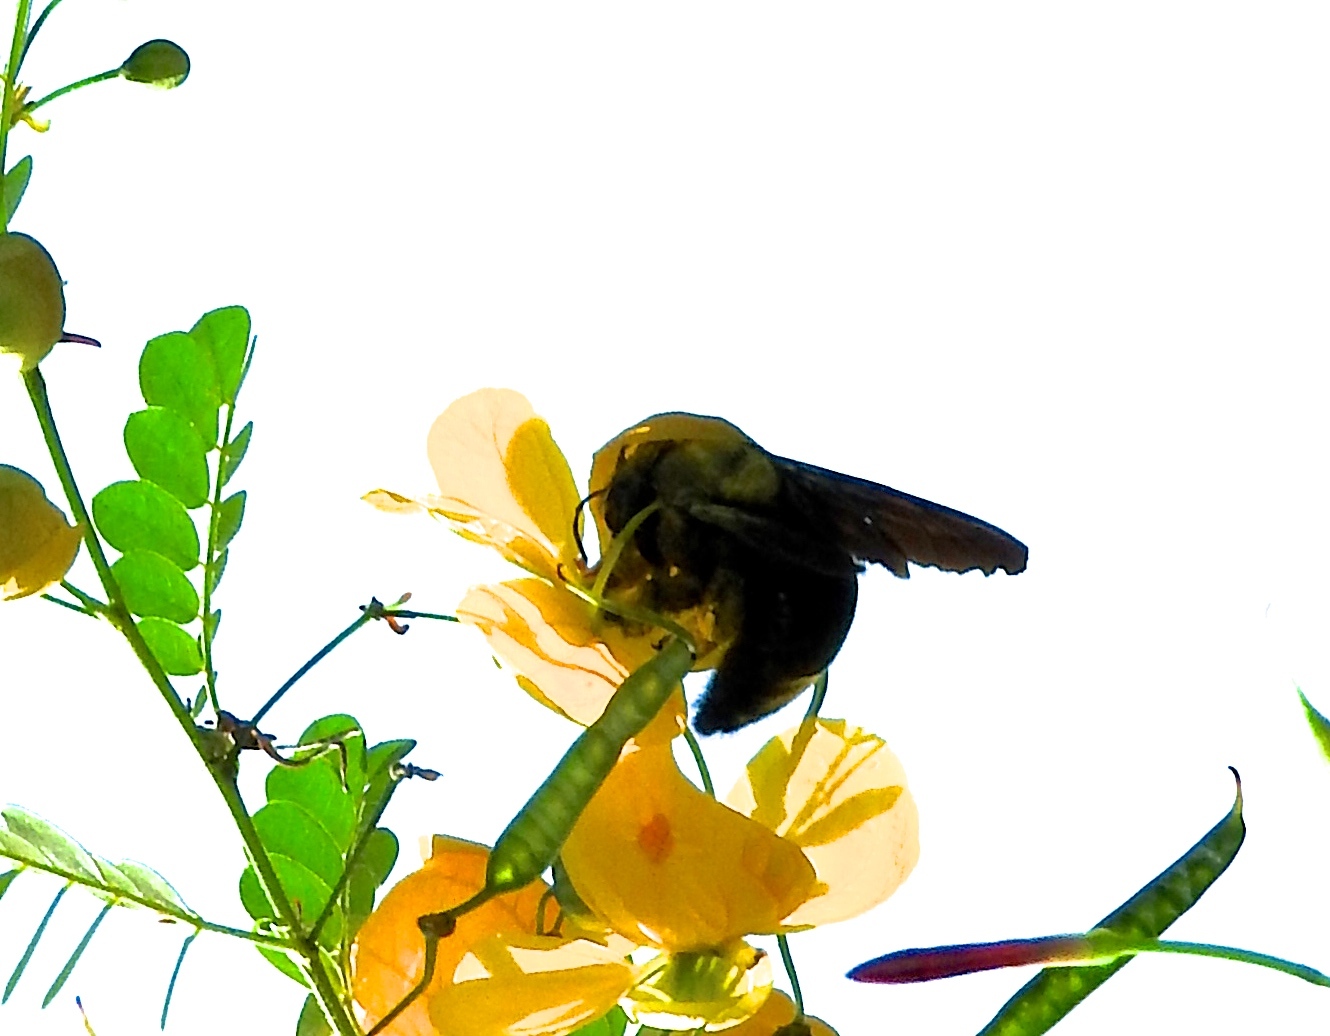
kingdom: Animalia
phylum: Arthropoda
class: Insecta
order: Hymenoptera
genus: Neoxylocopa
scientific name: Neoxylocopa
